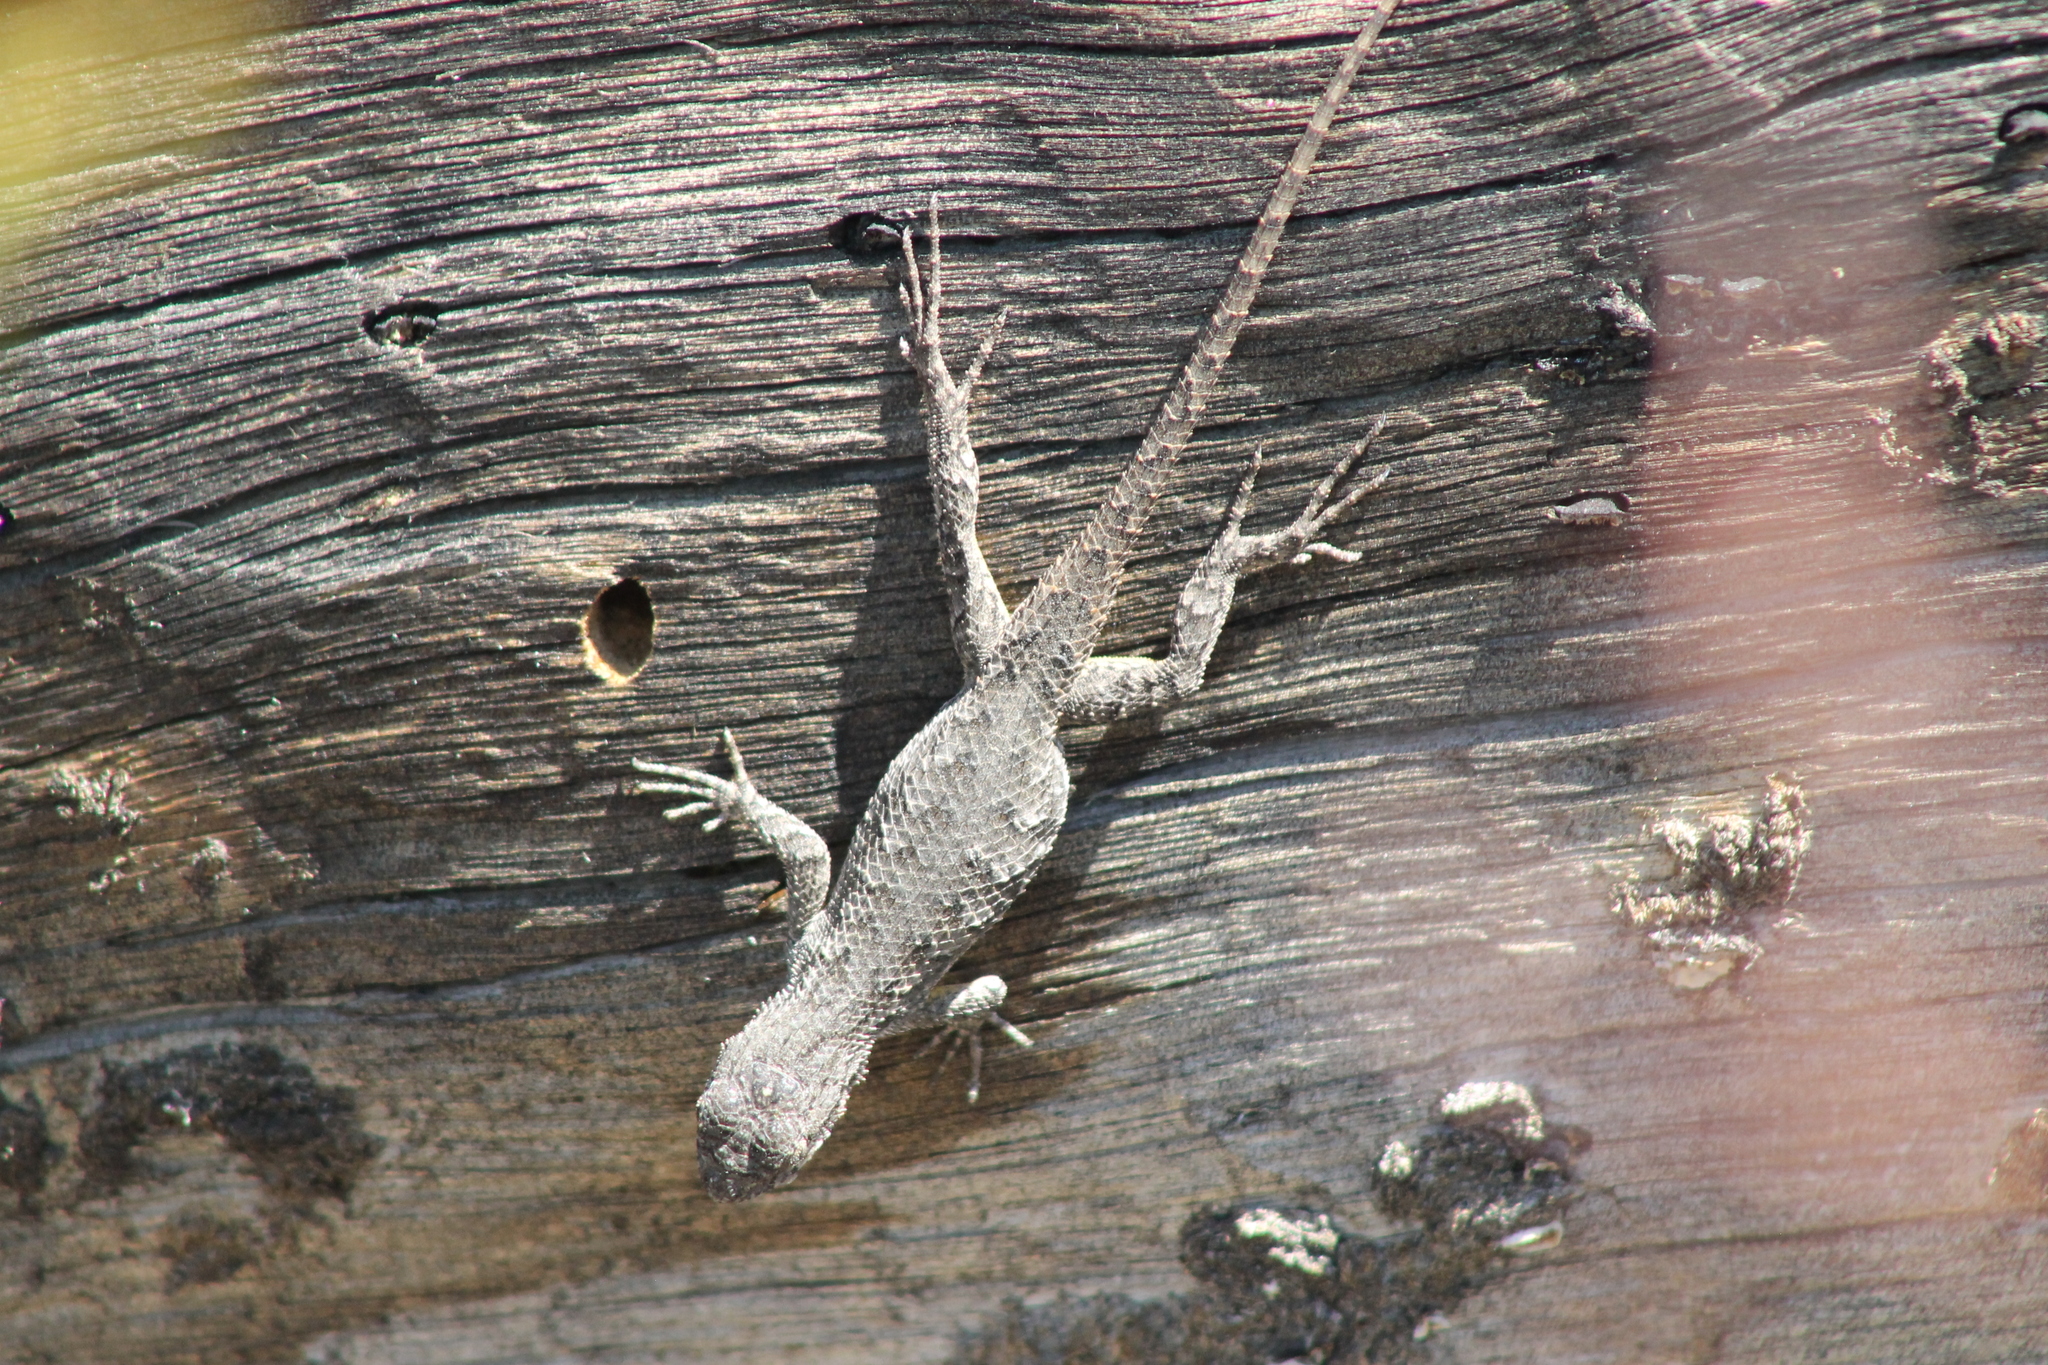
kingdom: Animalia
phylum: Chordata
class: Squamata
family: Phrynosomatidae
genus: Sceloporus
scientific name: Sceloporus occidentalis
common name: Western fence lizard
